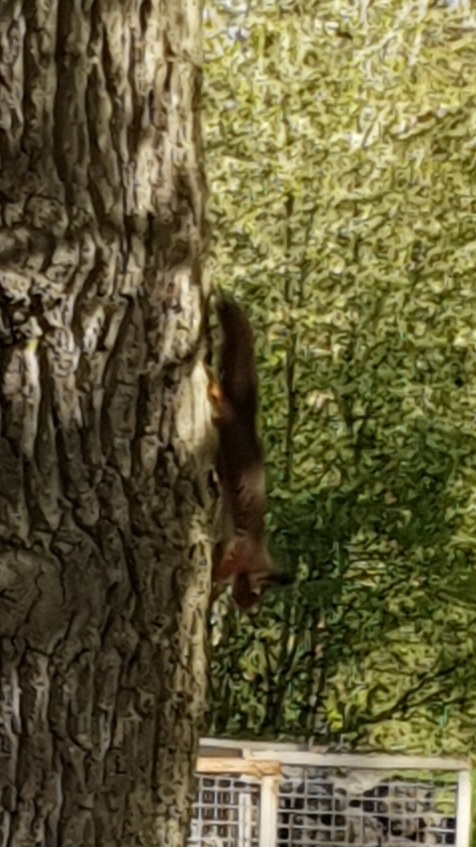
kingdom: Animalia
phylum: Chordata
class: Mammalia
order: Rodentia
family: Sciuridae
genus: Sciurus
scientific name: Sciurus vulgaris
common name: Eurasian red squirrel
